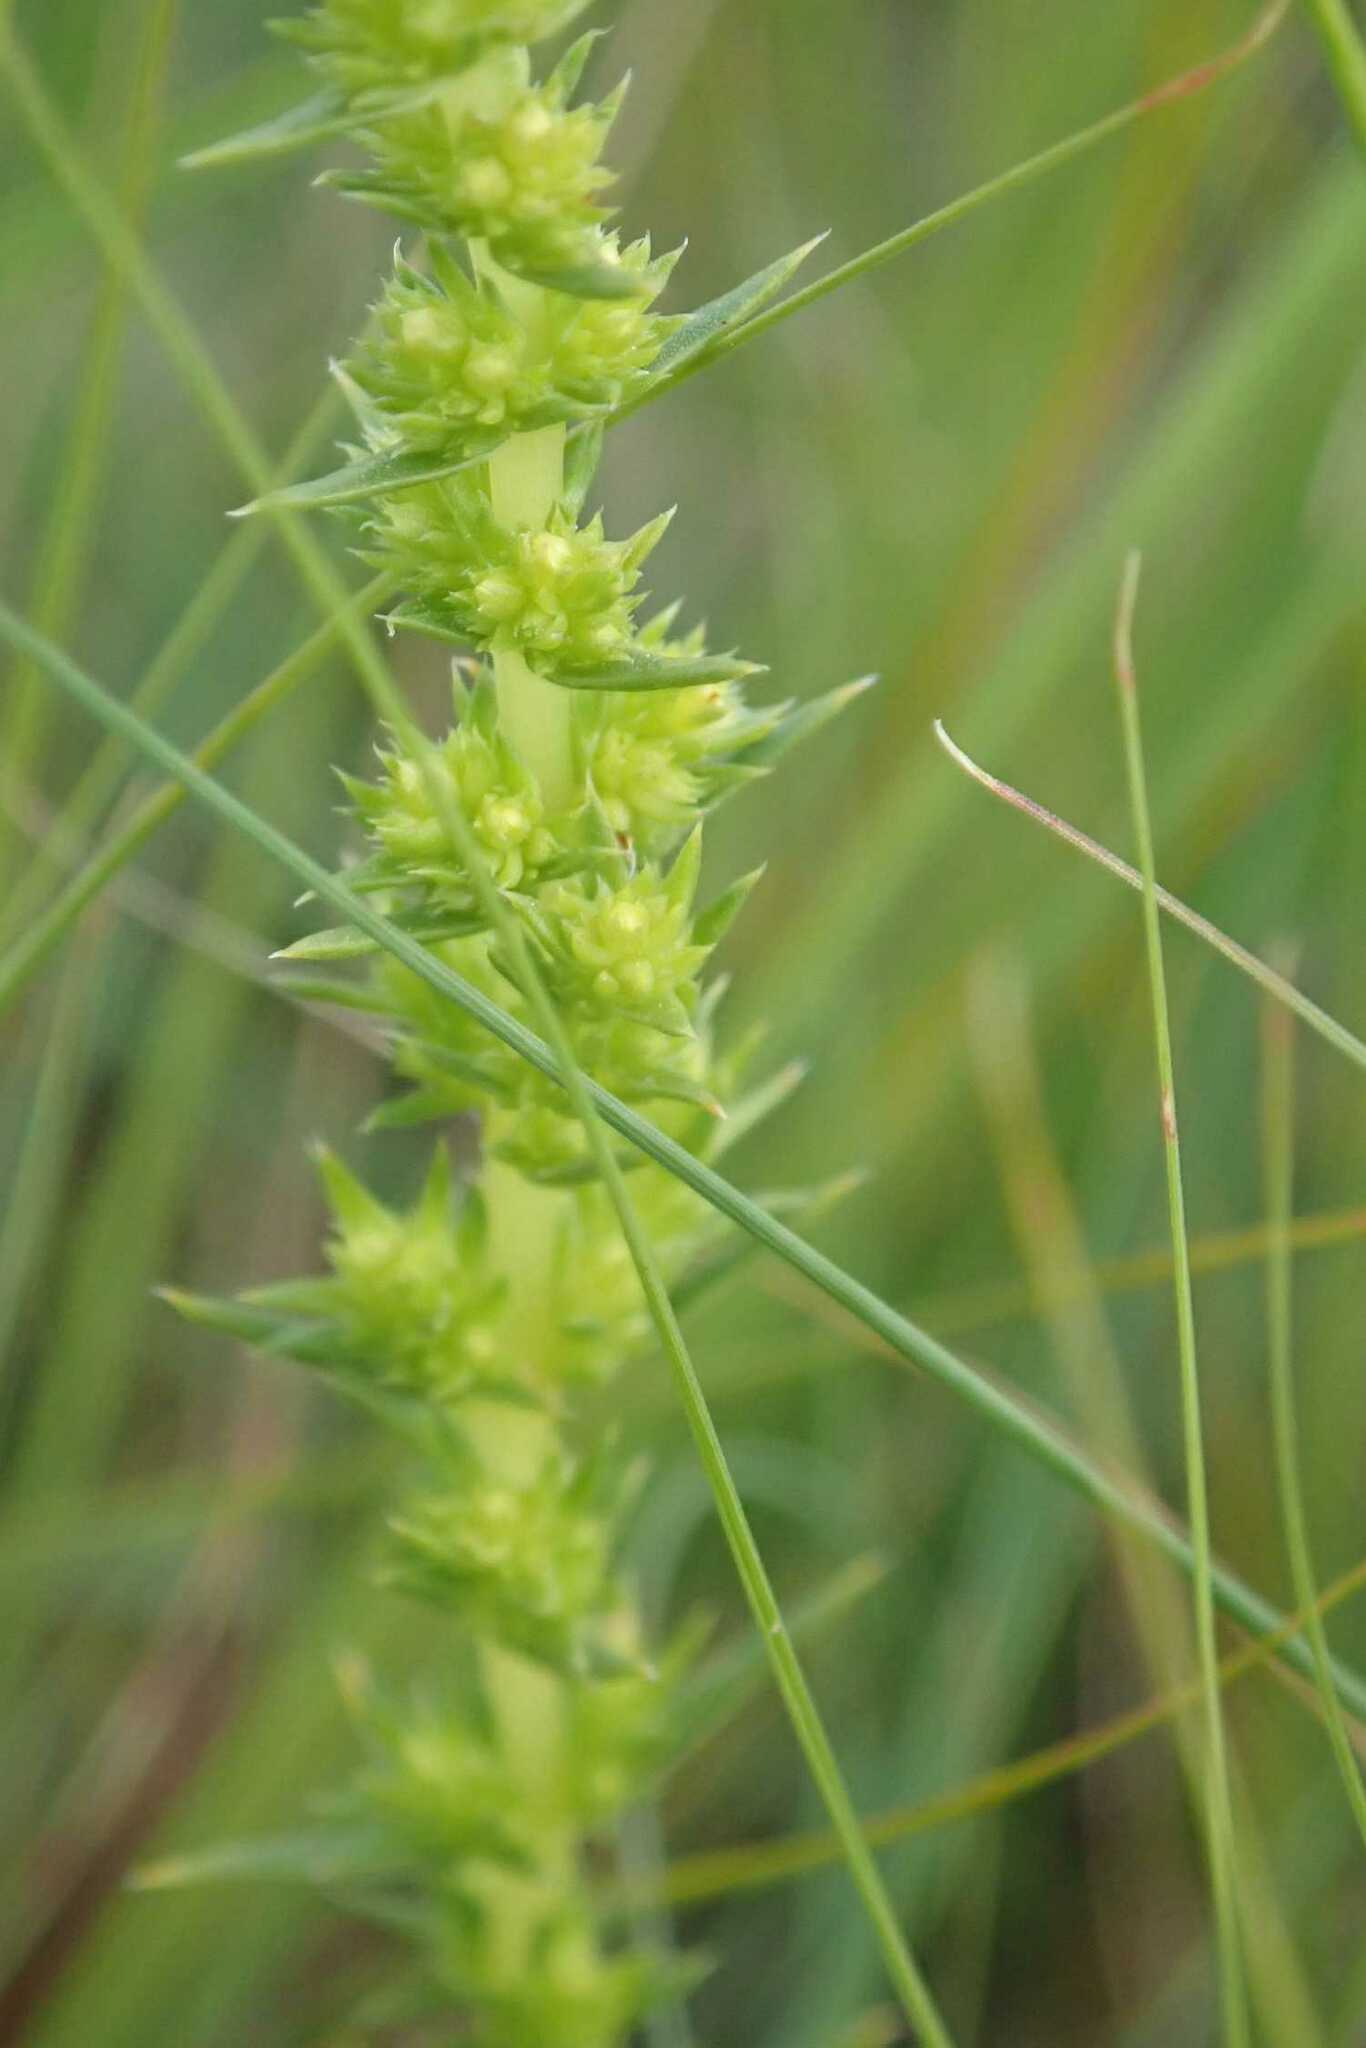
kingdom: Plantae
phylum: Tracheophyta
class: Magnoliopsida
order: Saxifragales
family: Crassulaceae
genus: Crassula
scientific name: Crassula lanceolata
